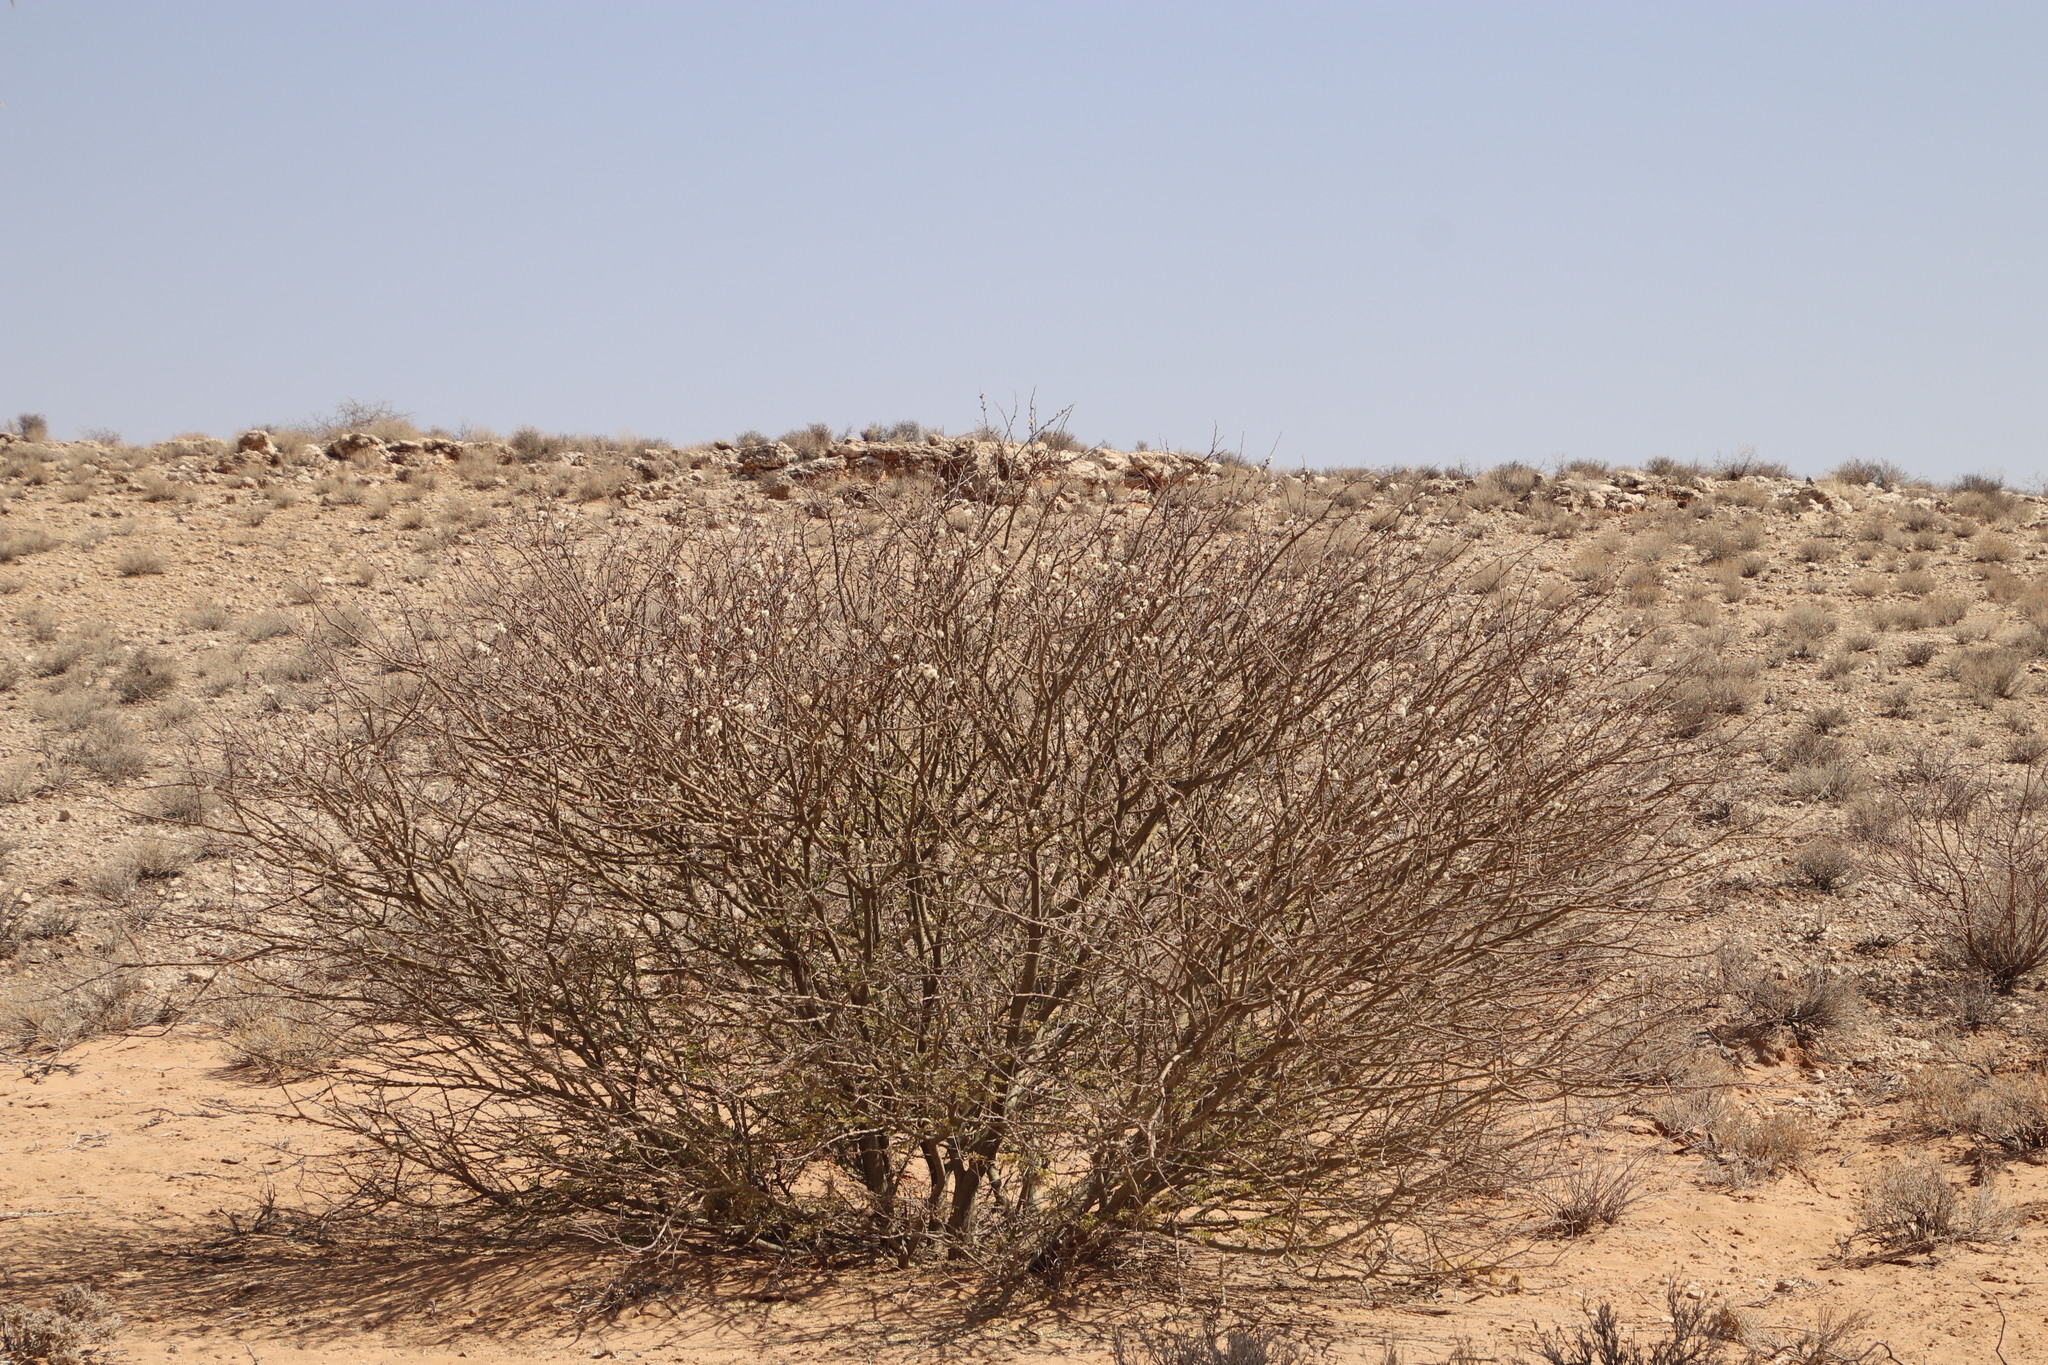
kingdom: Plantae
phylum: Tracheophyta
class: Magnoliopsida
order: Fabales
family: Fabaceae
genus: Senegalia
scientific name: Senegalia mellifera
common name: Hookthorn
